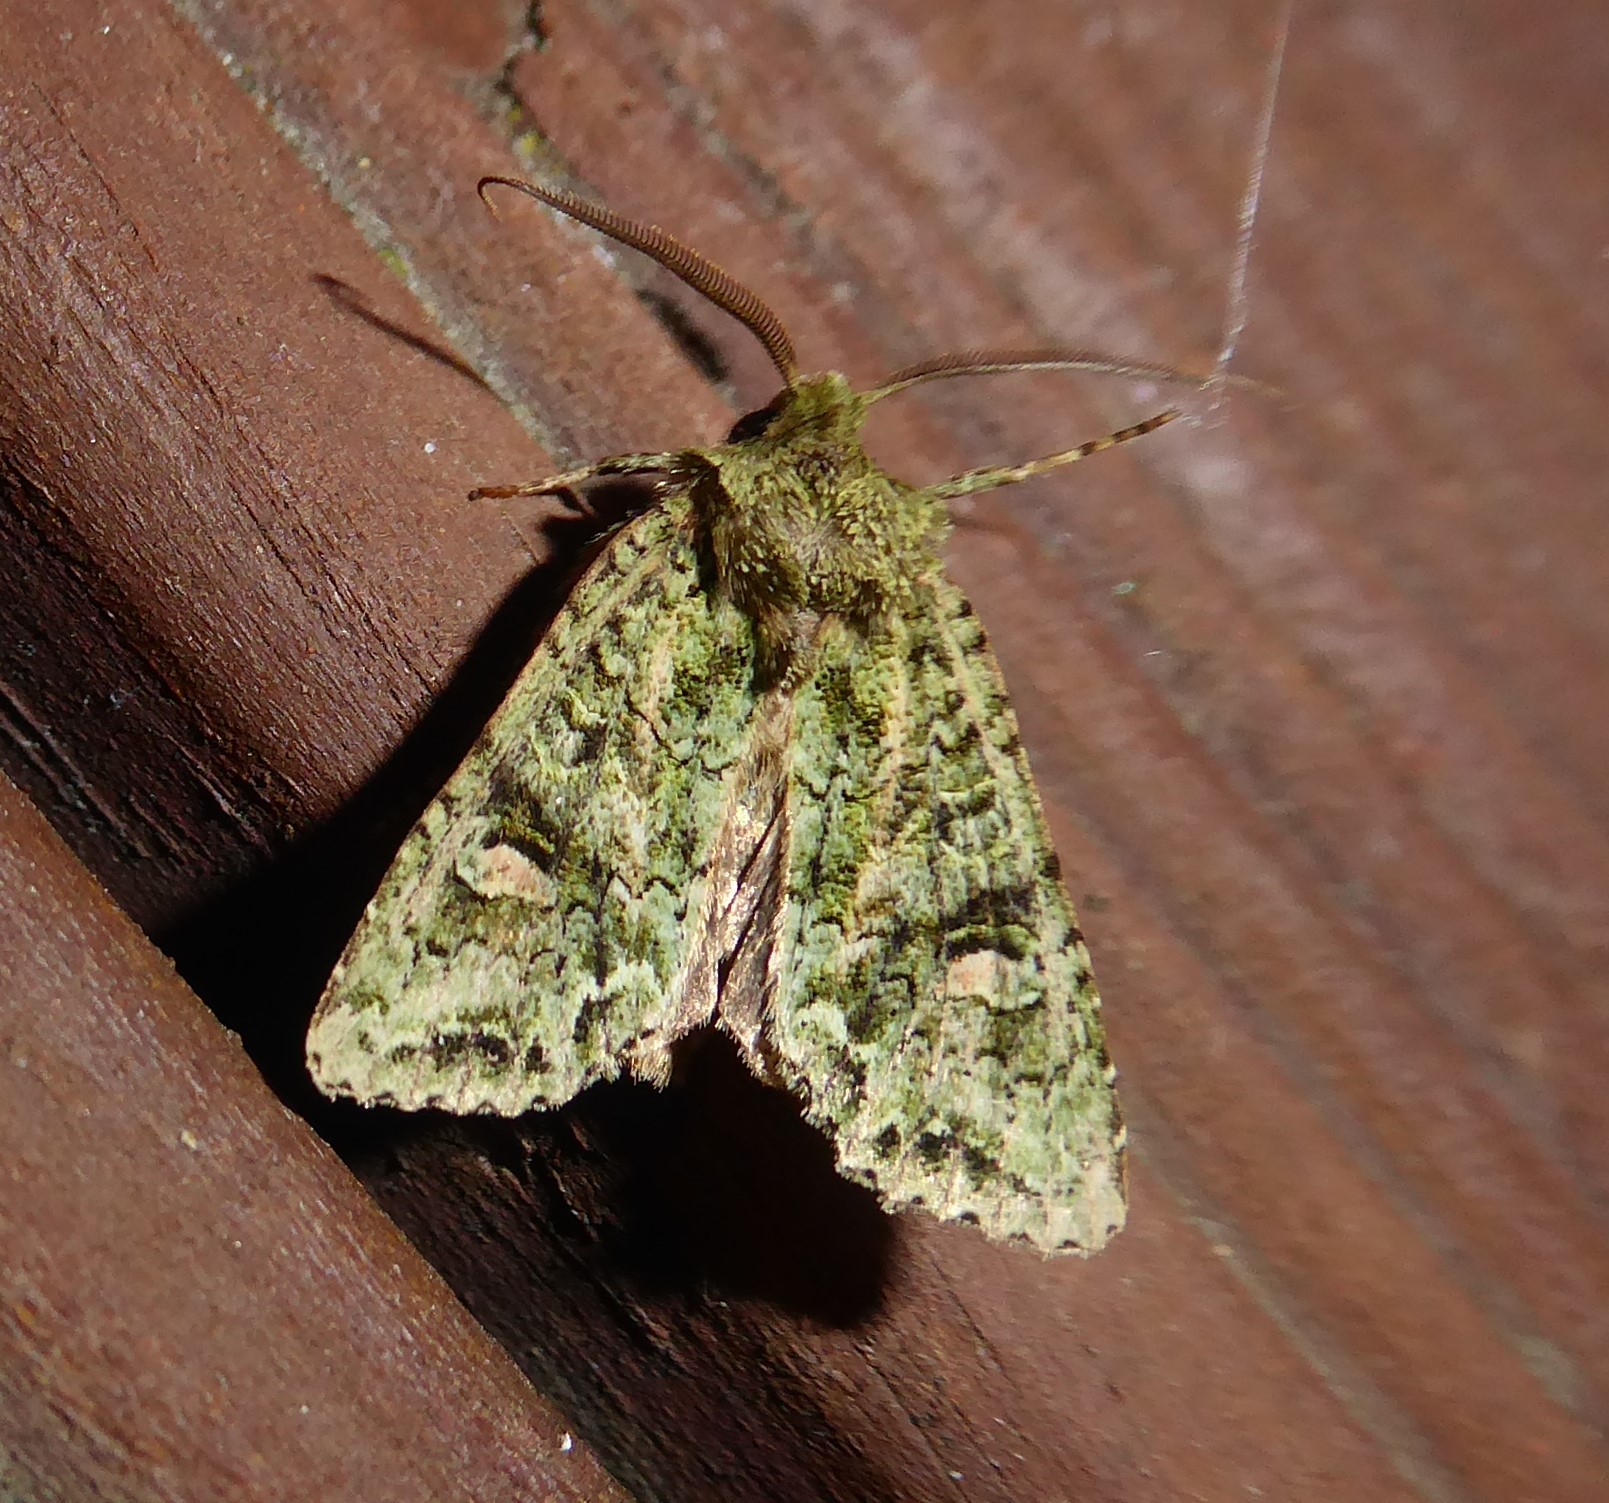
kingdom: Animalia
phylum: Arthropoda
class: Insecta
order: Lepidoptera
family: Noctuidae
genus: Ichneutica
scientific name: Ichneutica
